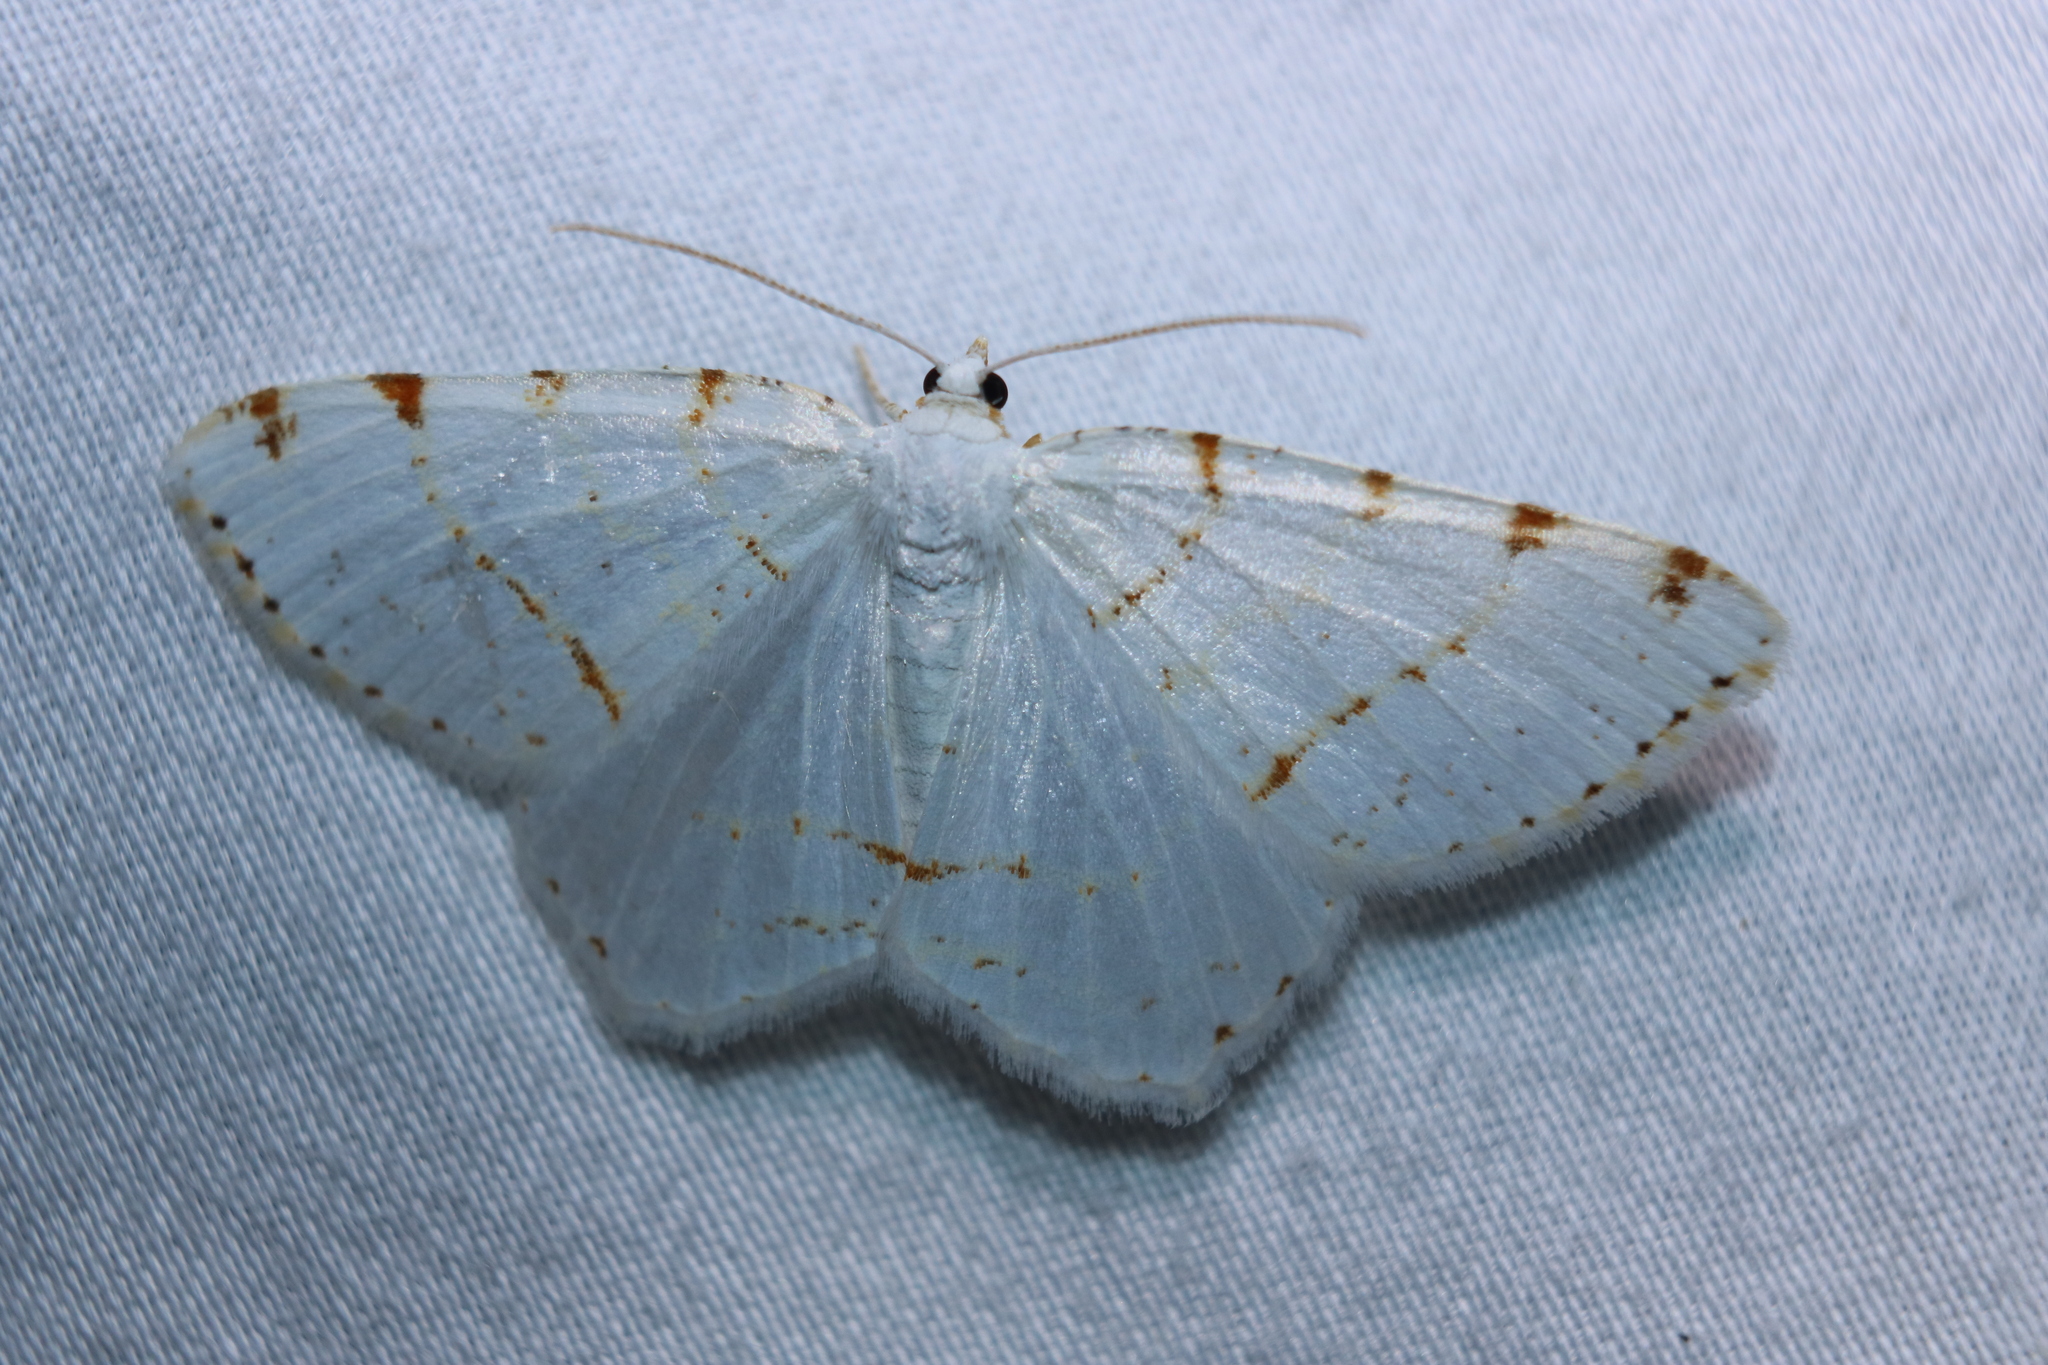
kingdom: Animalia
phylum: Arthropoda
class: Insecta
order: Lepidoptera
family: Geometridae
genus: Macaria
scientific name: Macaria pustularia
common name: Lesser maple spanworm moth
